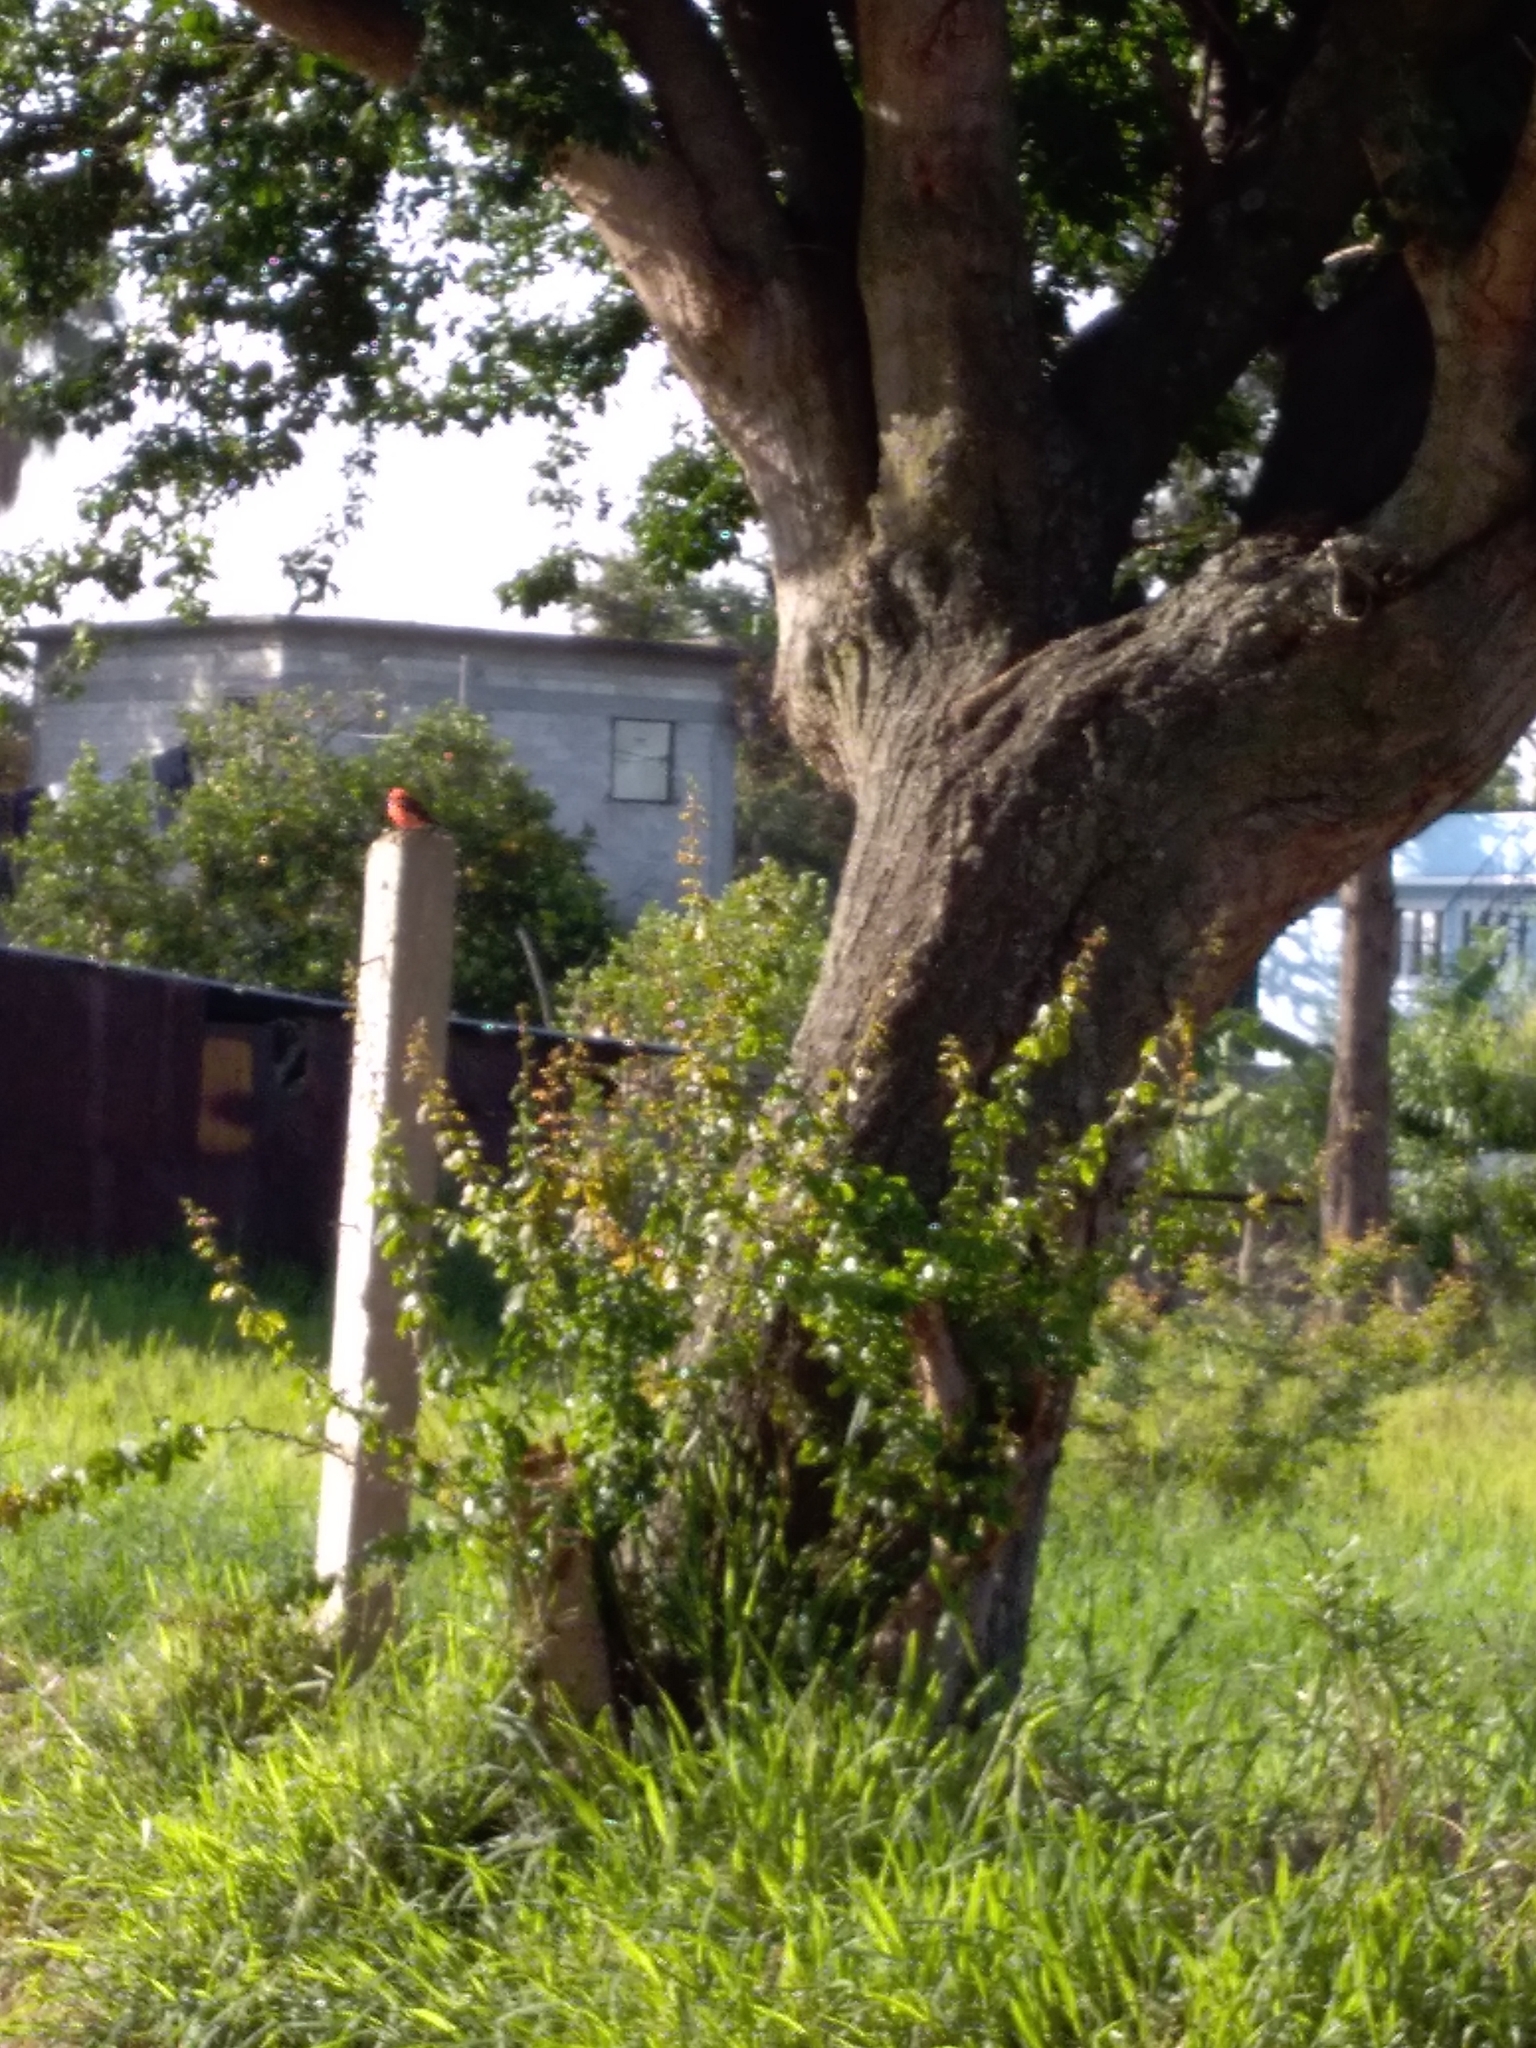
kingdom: Animalia
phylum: Chordata
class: Aves
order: Passeriformes
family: Tyrannidae
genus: Pyrocephalus
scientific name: Pyrocephalus rubinus
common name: Vermilion flycatcher
